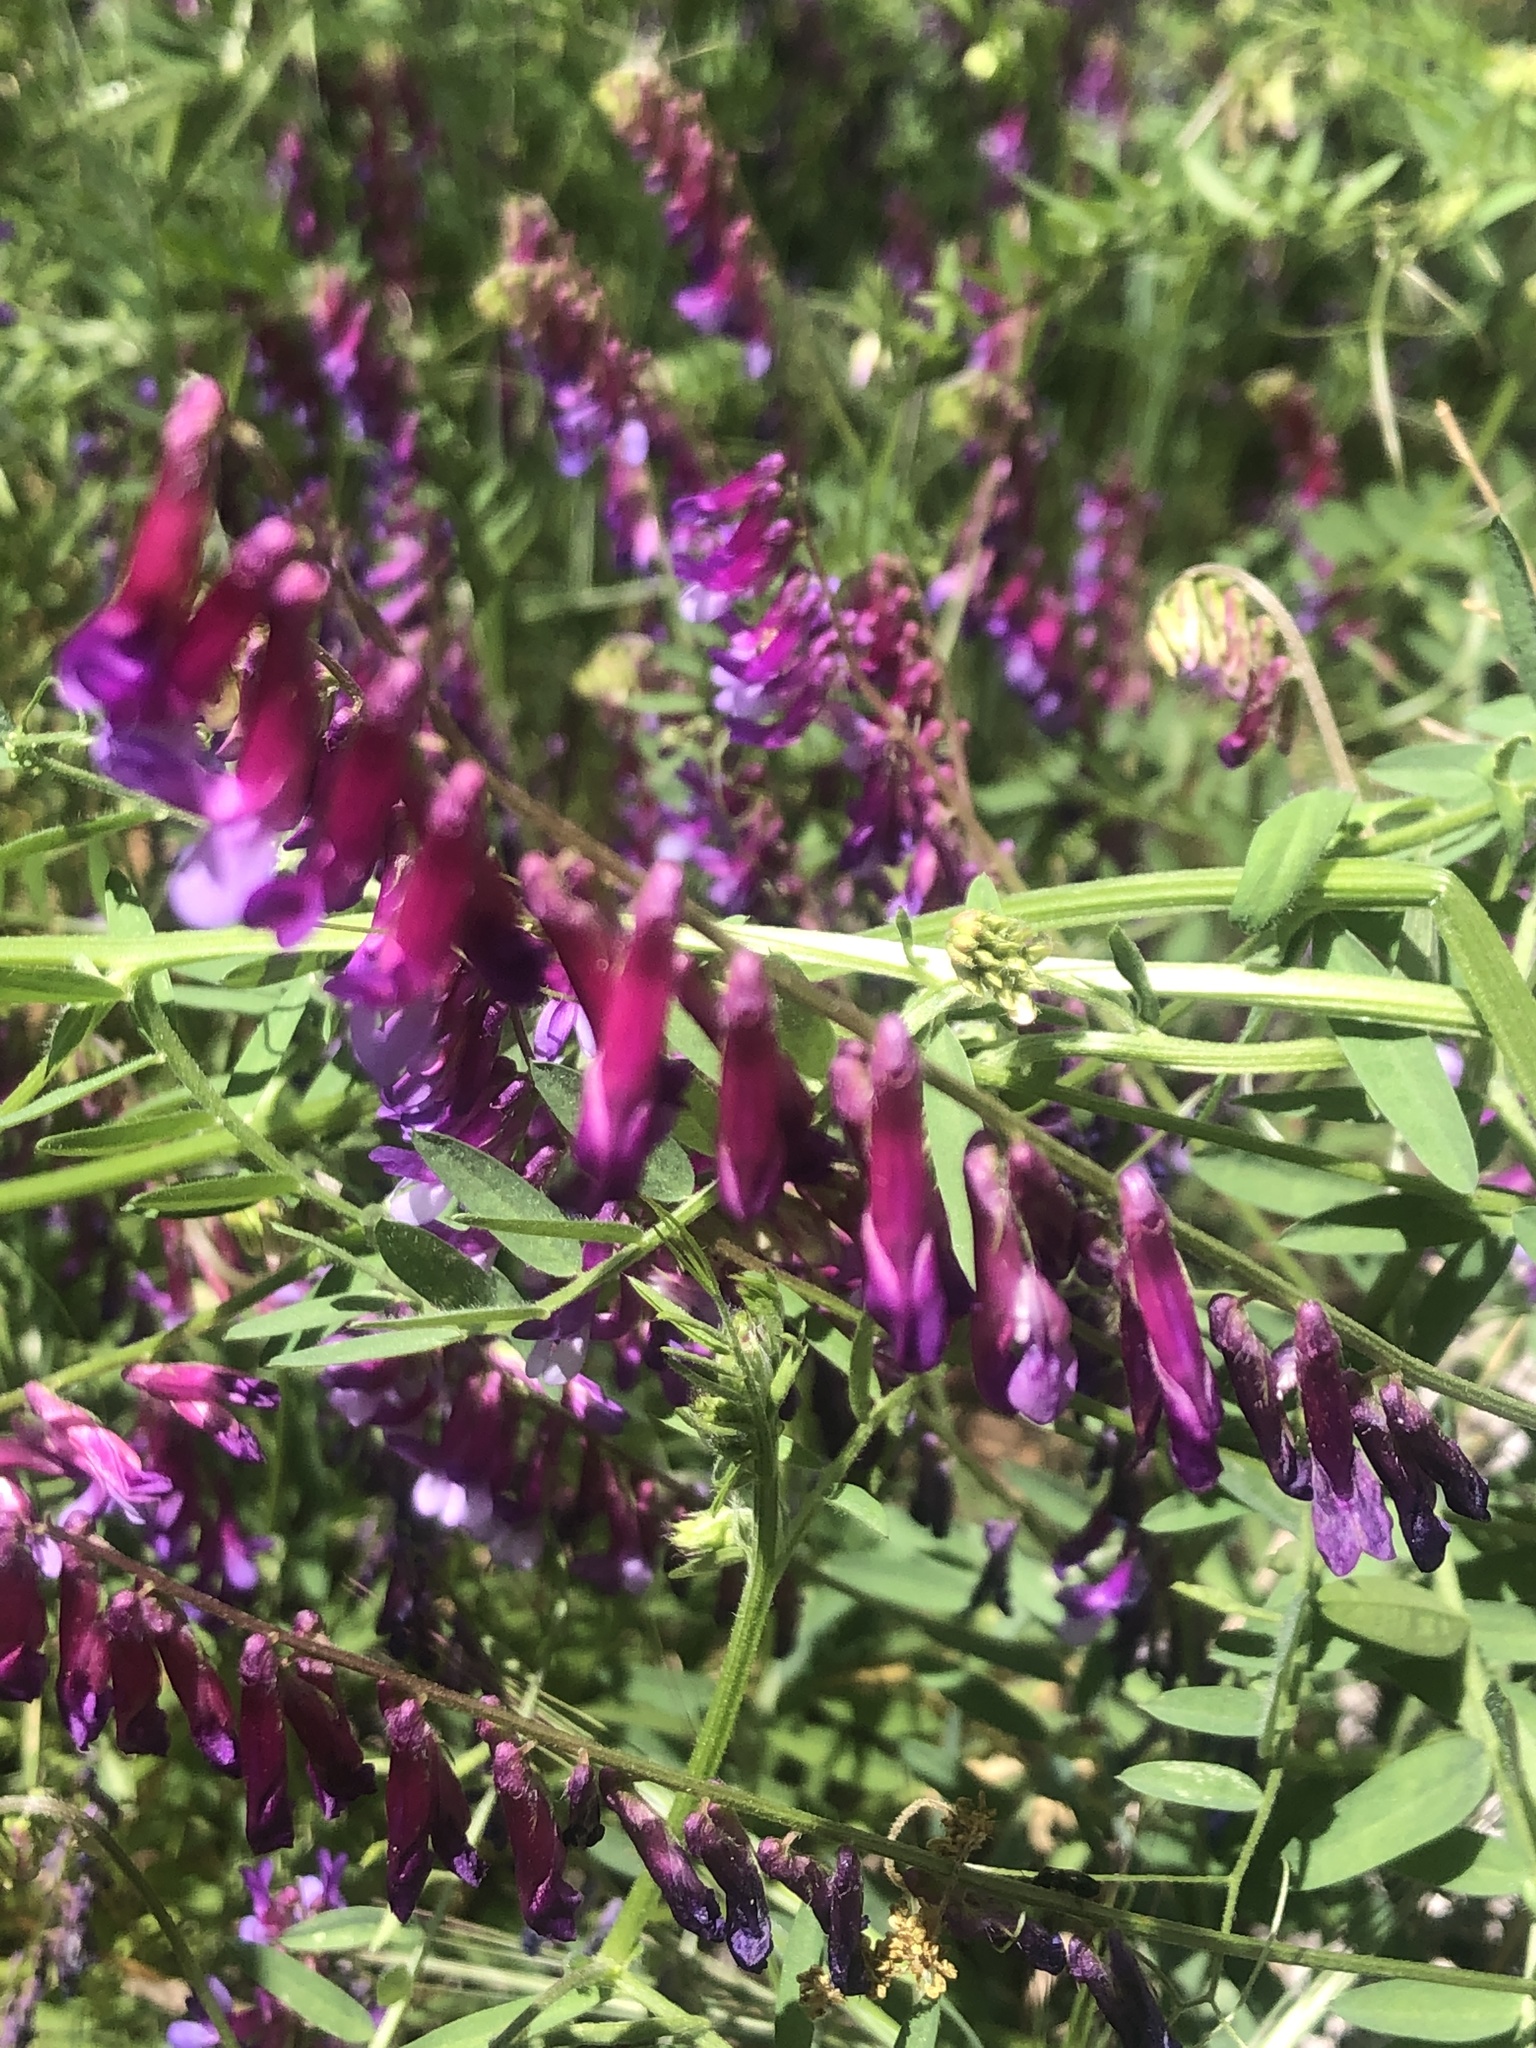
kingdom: Plantae
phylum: Tracheophyta
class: Magnoliopsida
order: Fabales
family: Fabaceae
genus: Vicia
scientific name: Vicia villosa
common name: Fodder vetch
